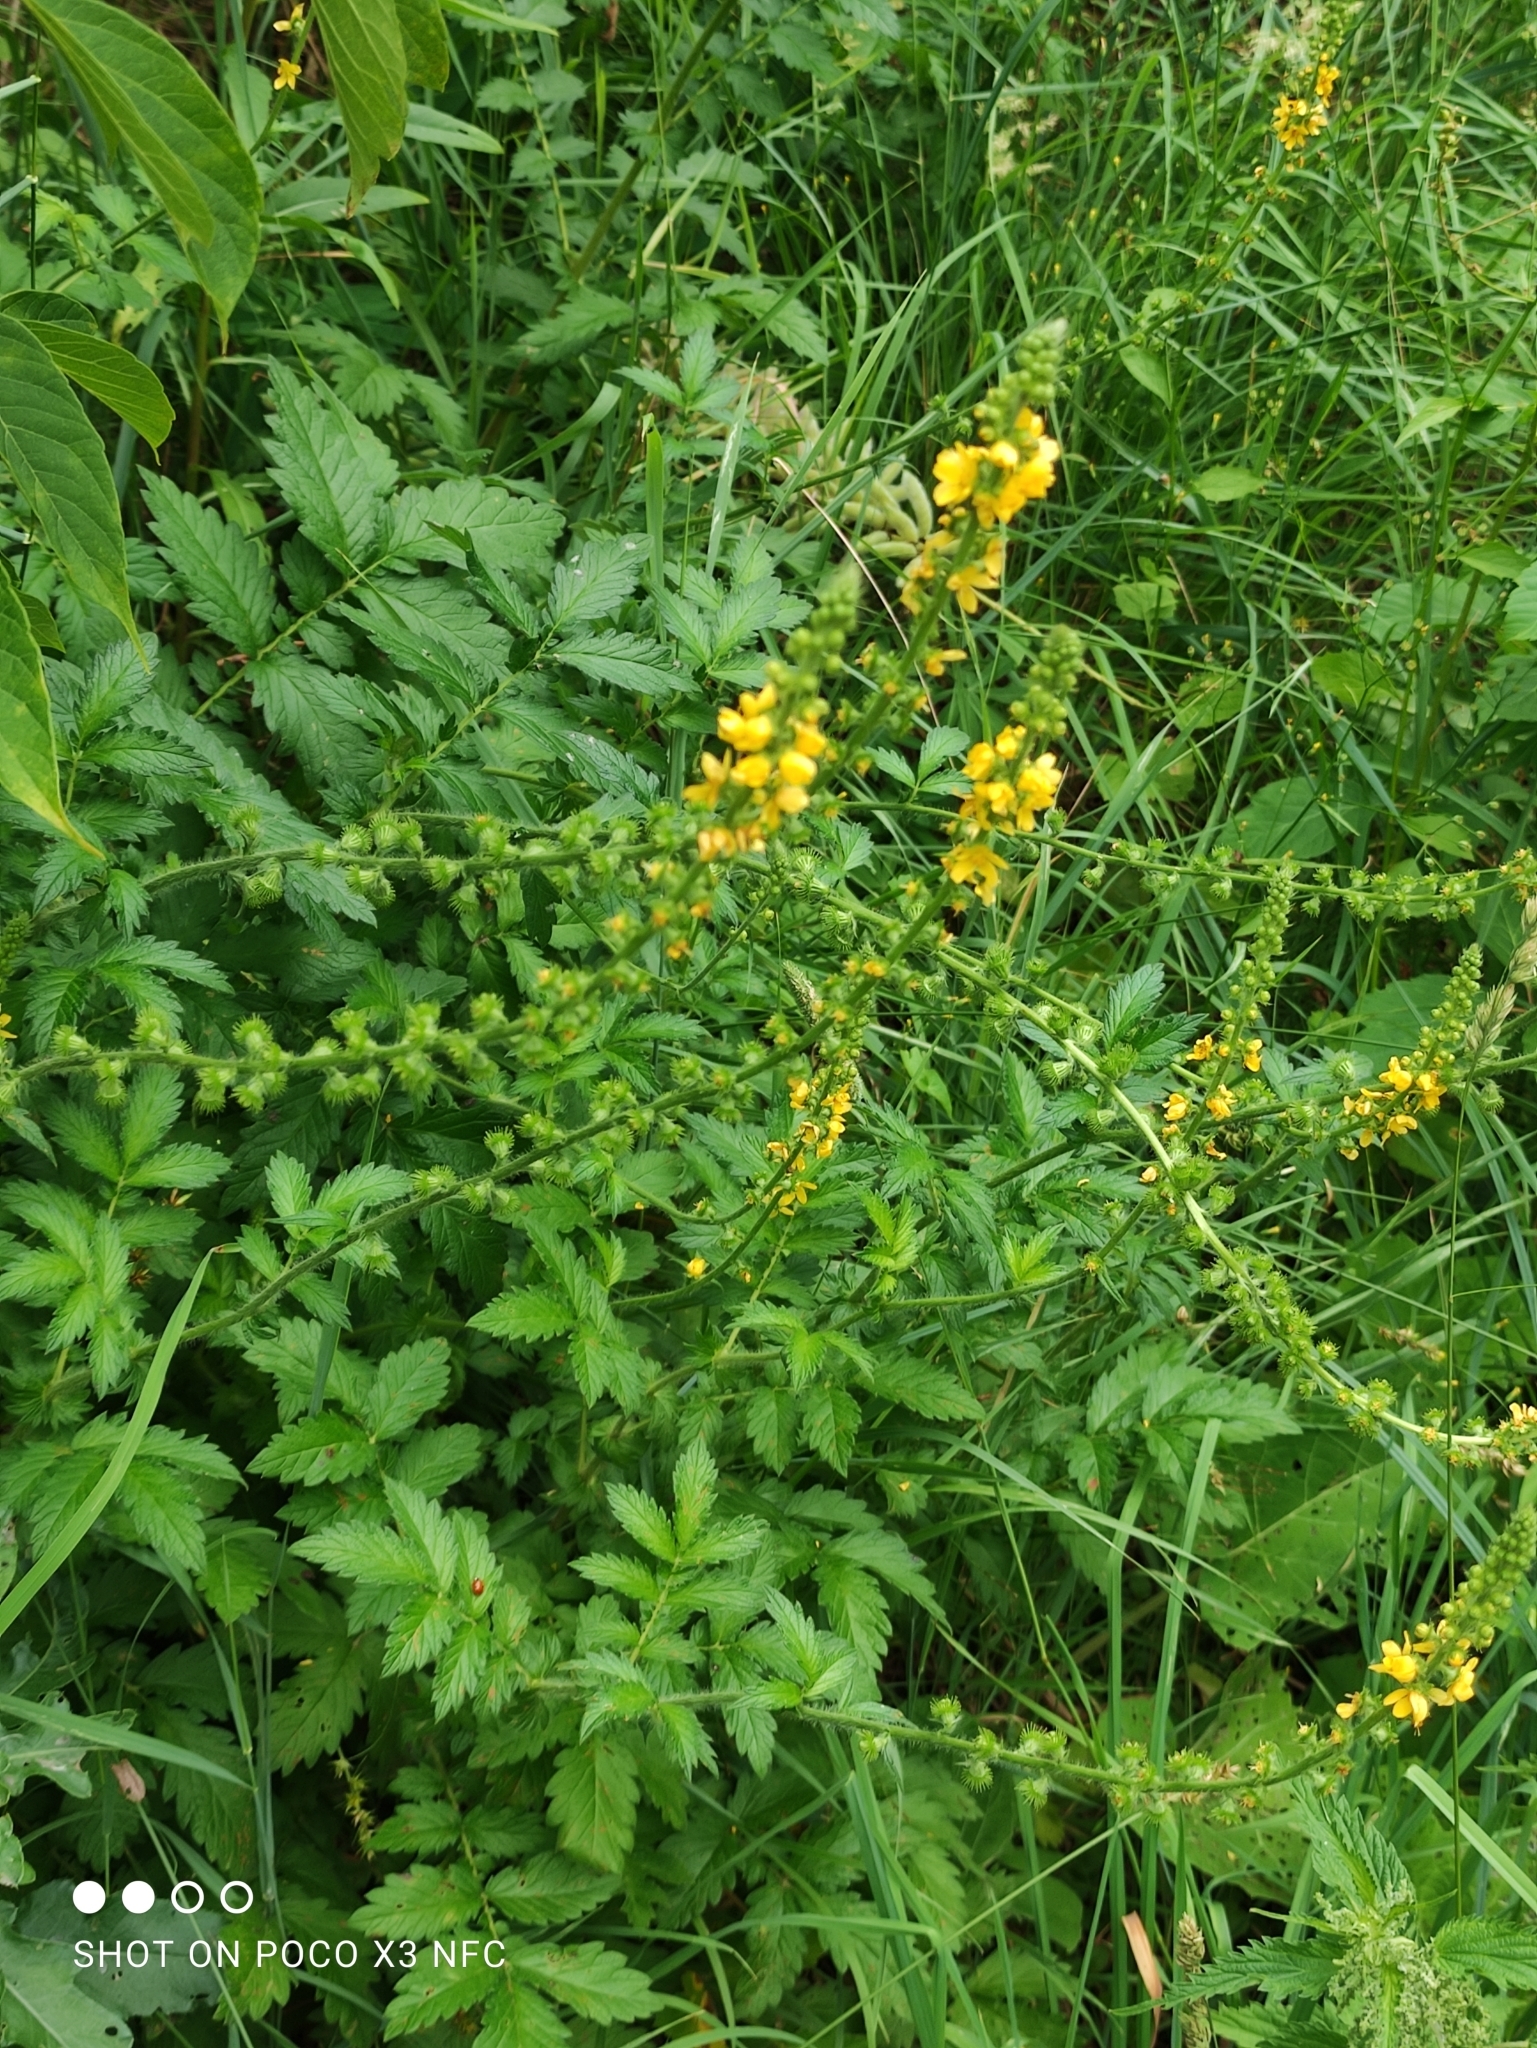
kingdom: Plantae
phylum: Tracheophyta
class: Magnoliopsida
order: Rosales
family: Rosaceae
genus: Agrimonia
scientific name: Agrimonia eupatoria
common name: Agrimony
